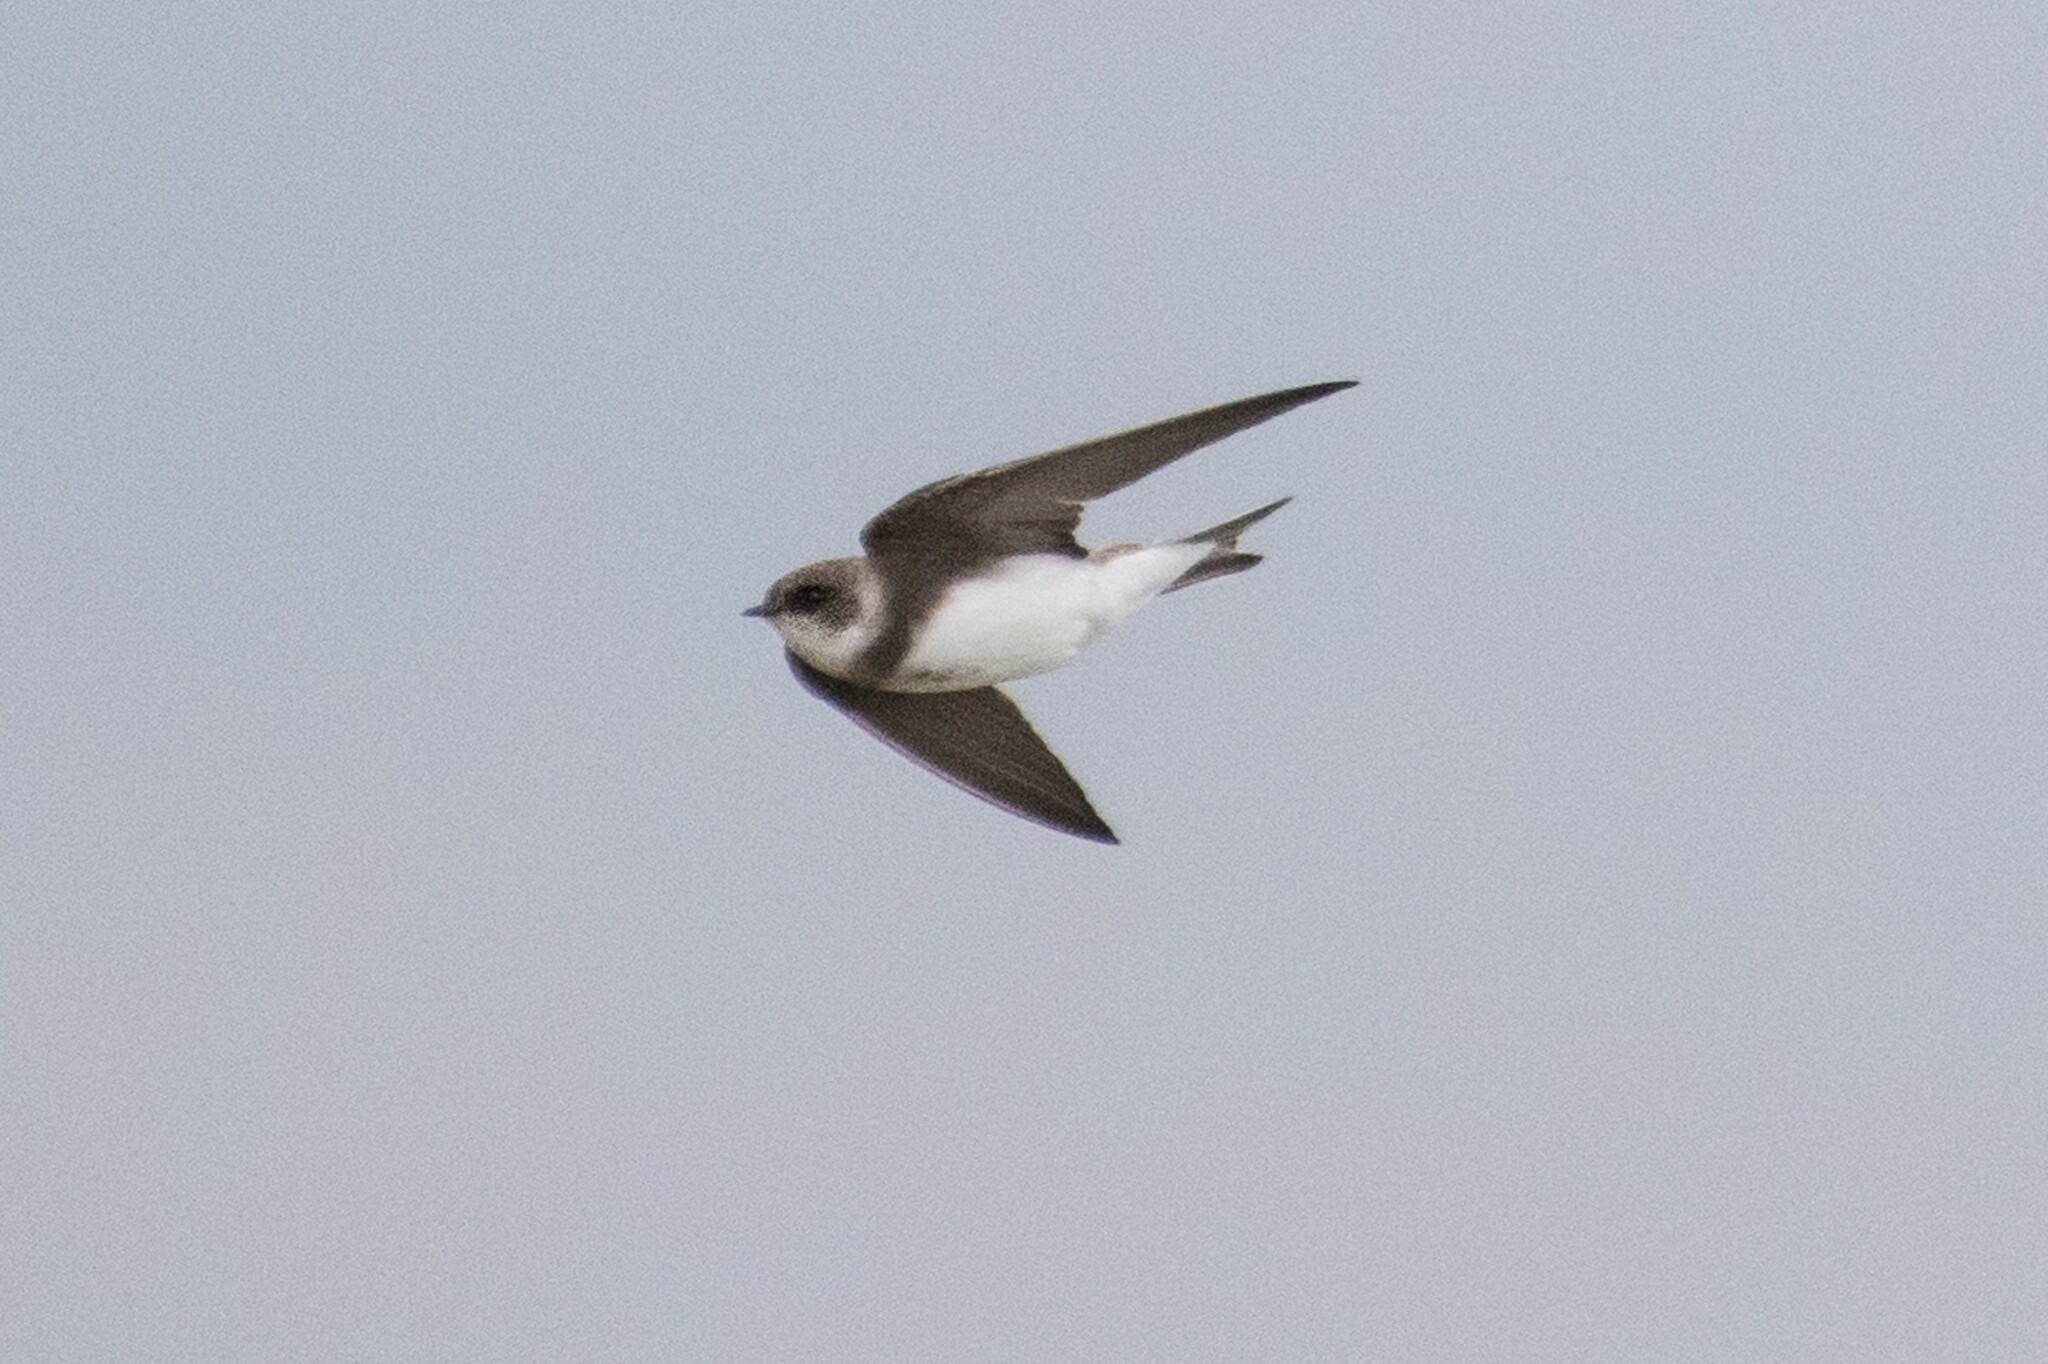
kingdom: Animalia
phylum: Chordata
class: Aves
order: Passeriformes
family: Hirundinidae
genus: Riparia
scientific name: Riparia riparia
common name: Sand martin
